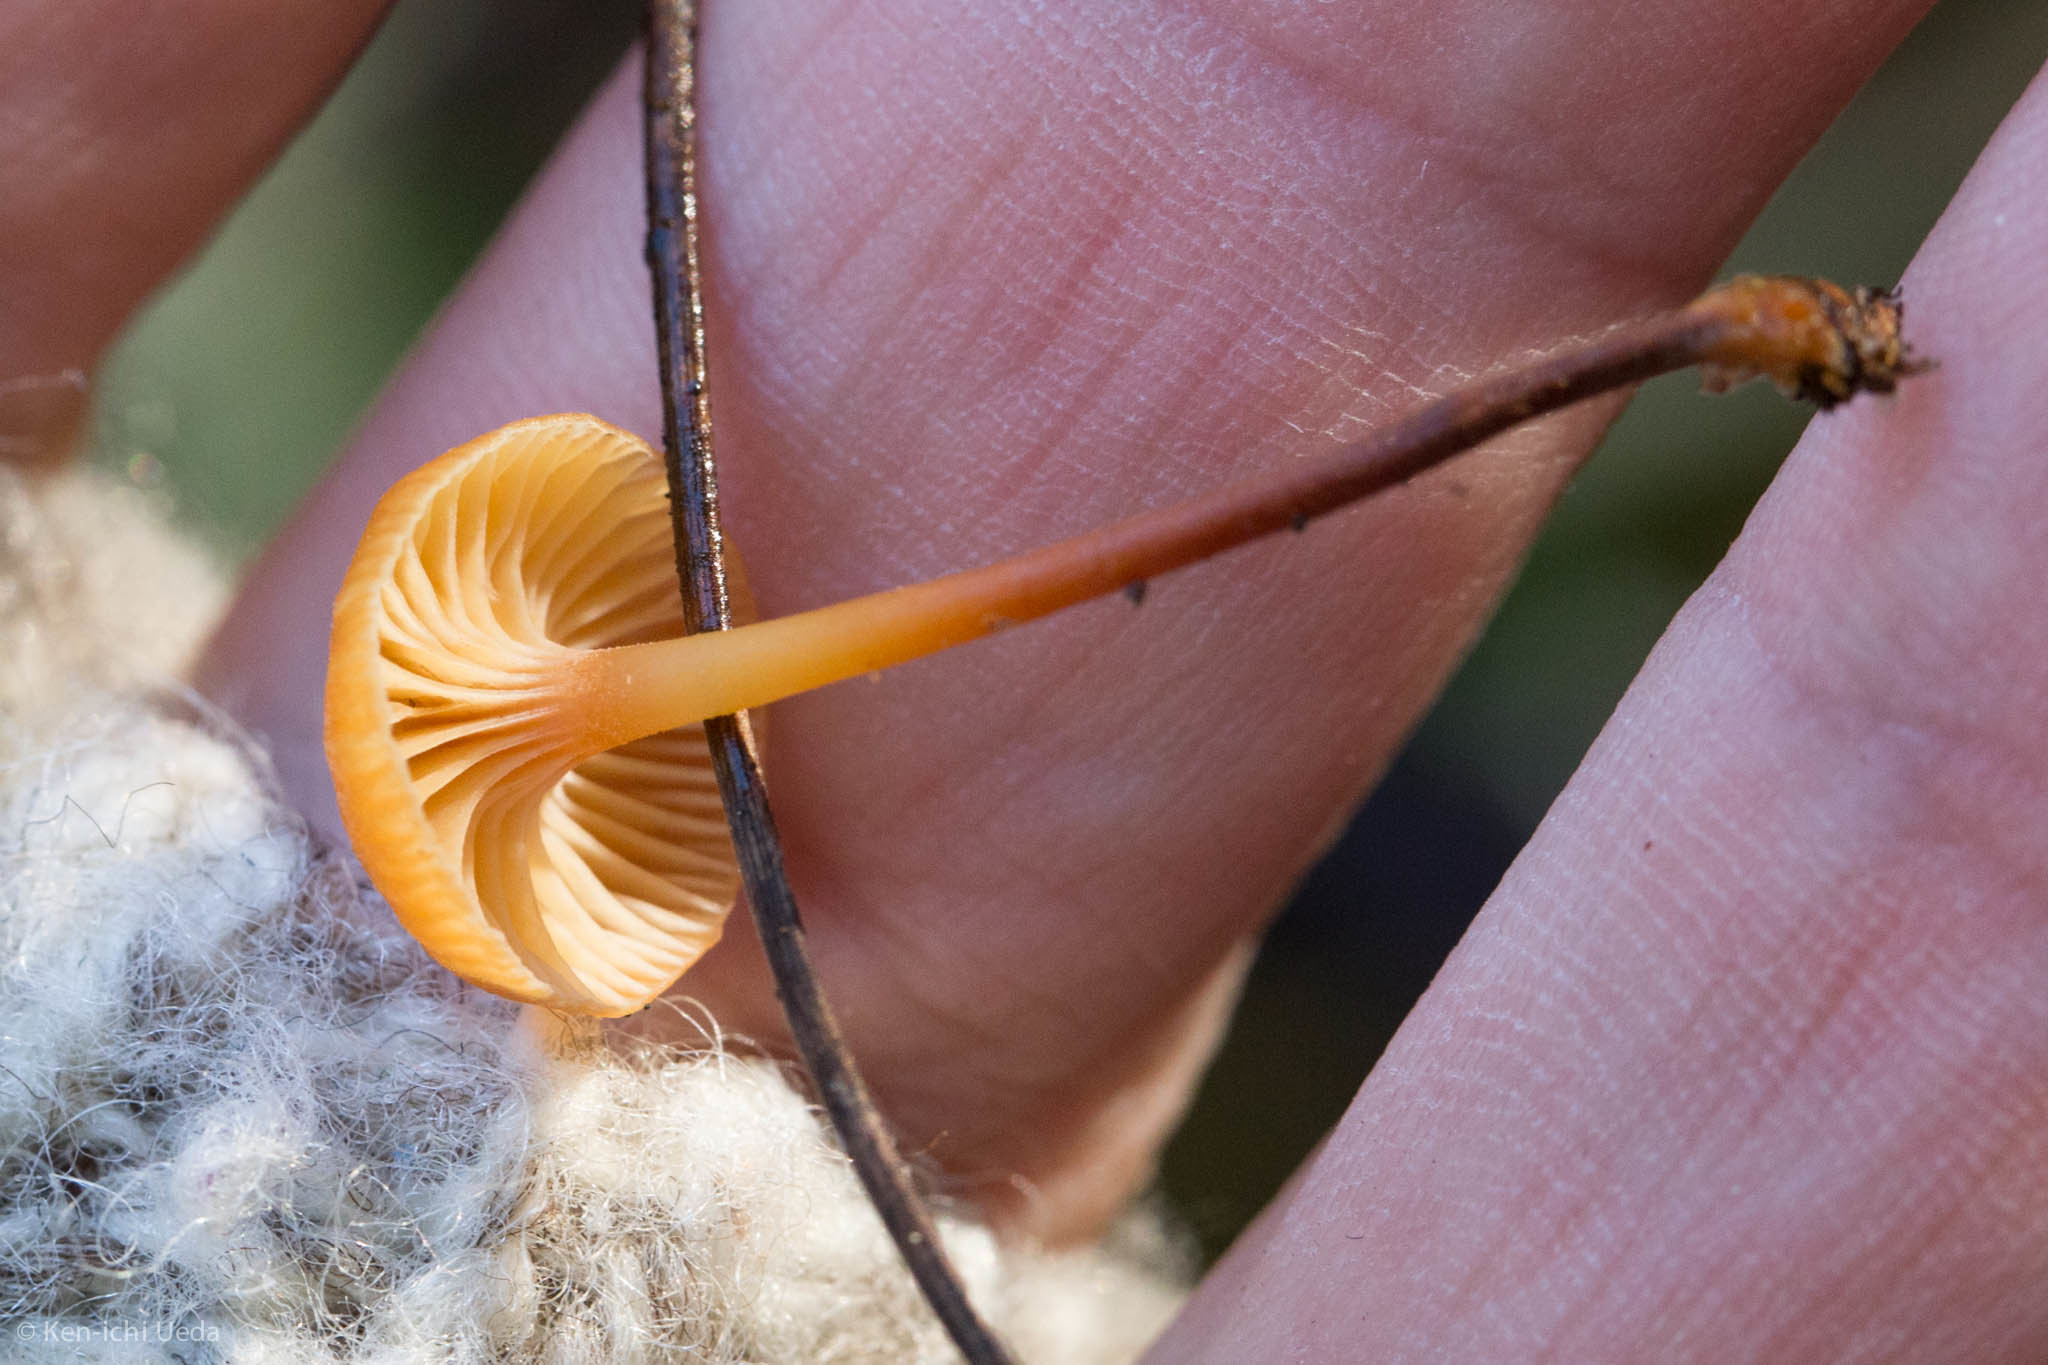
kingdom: Fungi
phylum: Basidiomycota
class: Agaricomycetes
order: Agaricales
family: Mycenaceae
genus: Xeromphalina
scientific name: Xeromphalina cauticinalis
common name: Pinelitter gingertail
